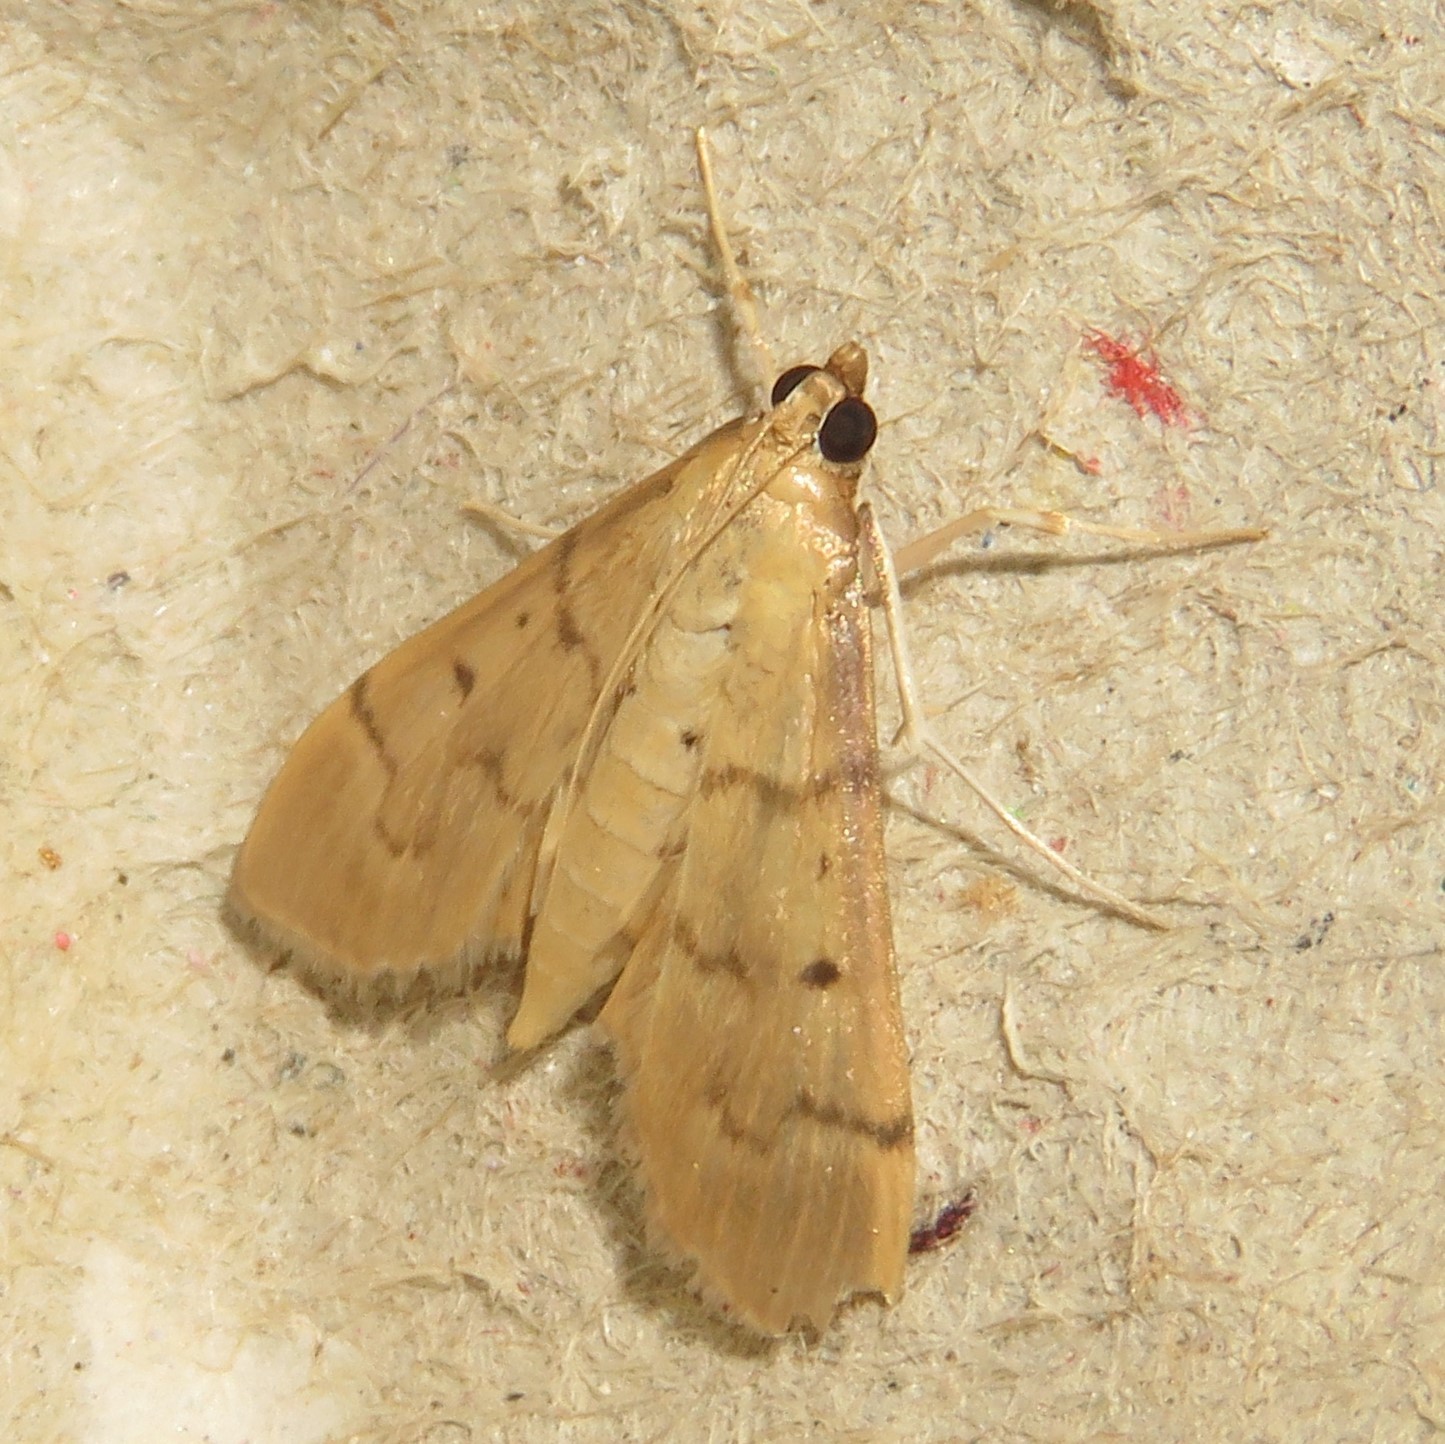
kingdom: Animalia
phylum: Arthropoda
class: Insecta
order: Lepidoptera
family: Crambidae
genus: Herpetogramma
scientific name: Herpetogramma bipunctalis
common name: Southern beet webworm
